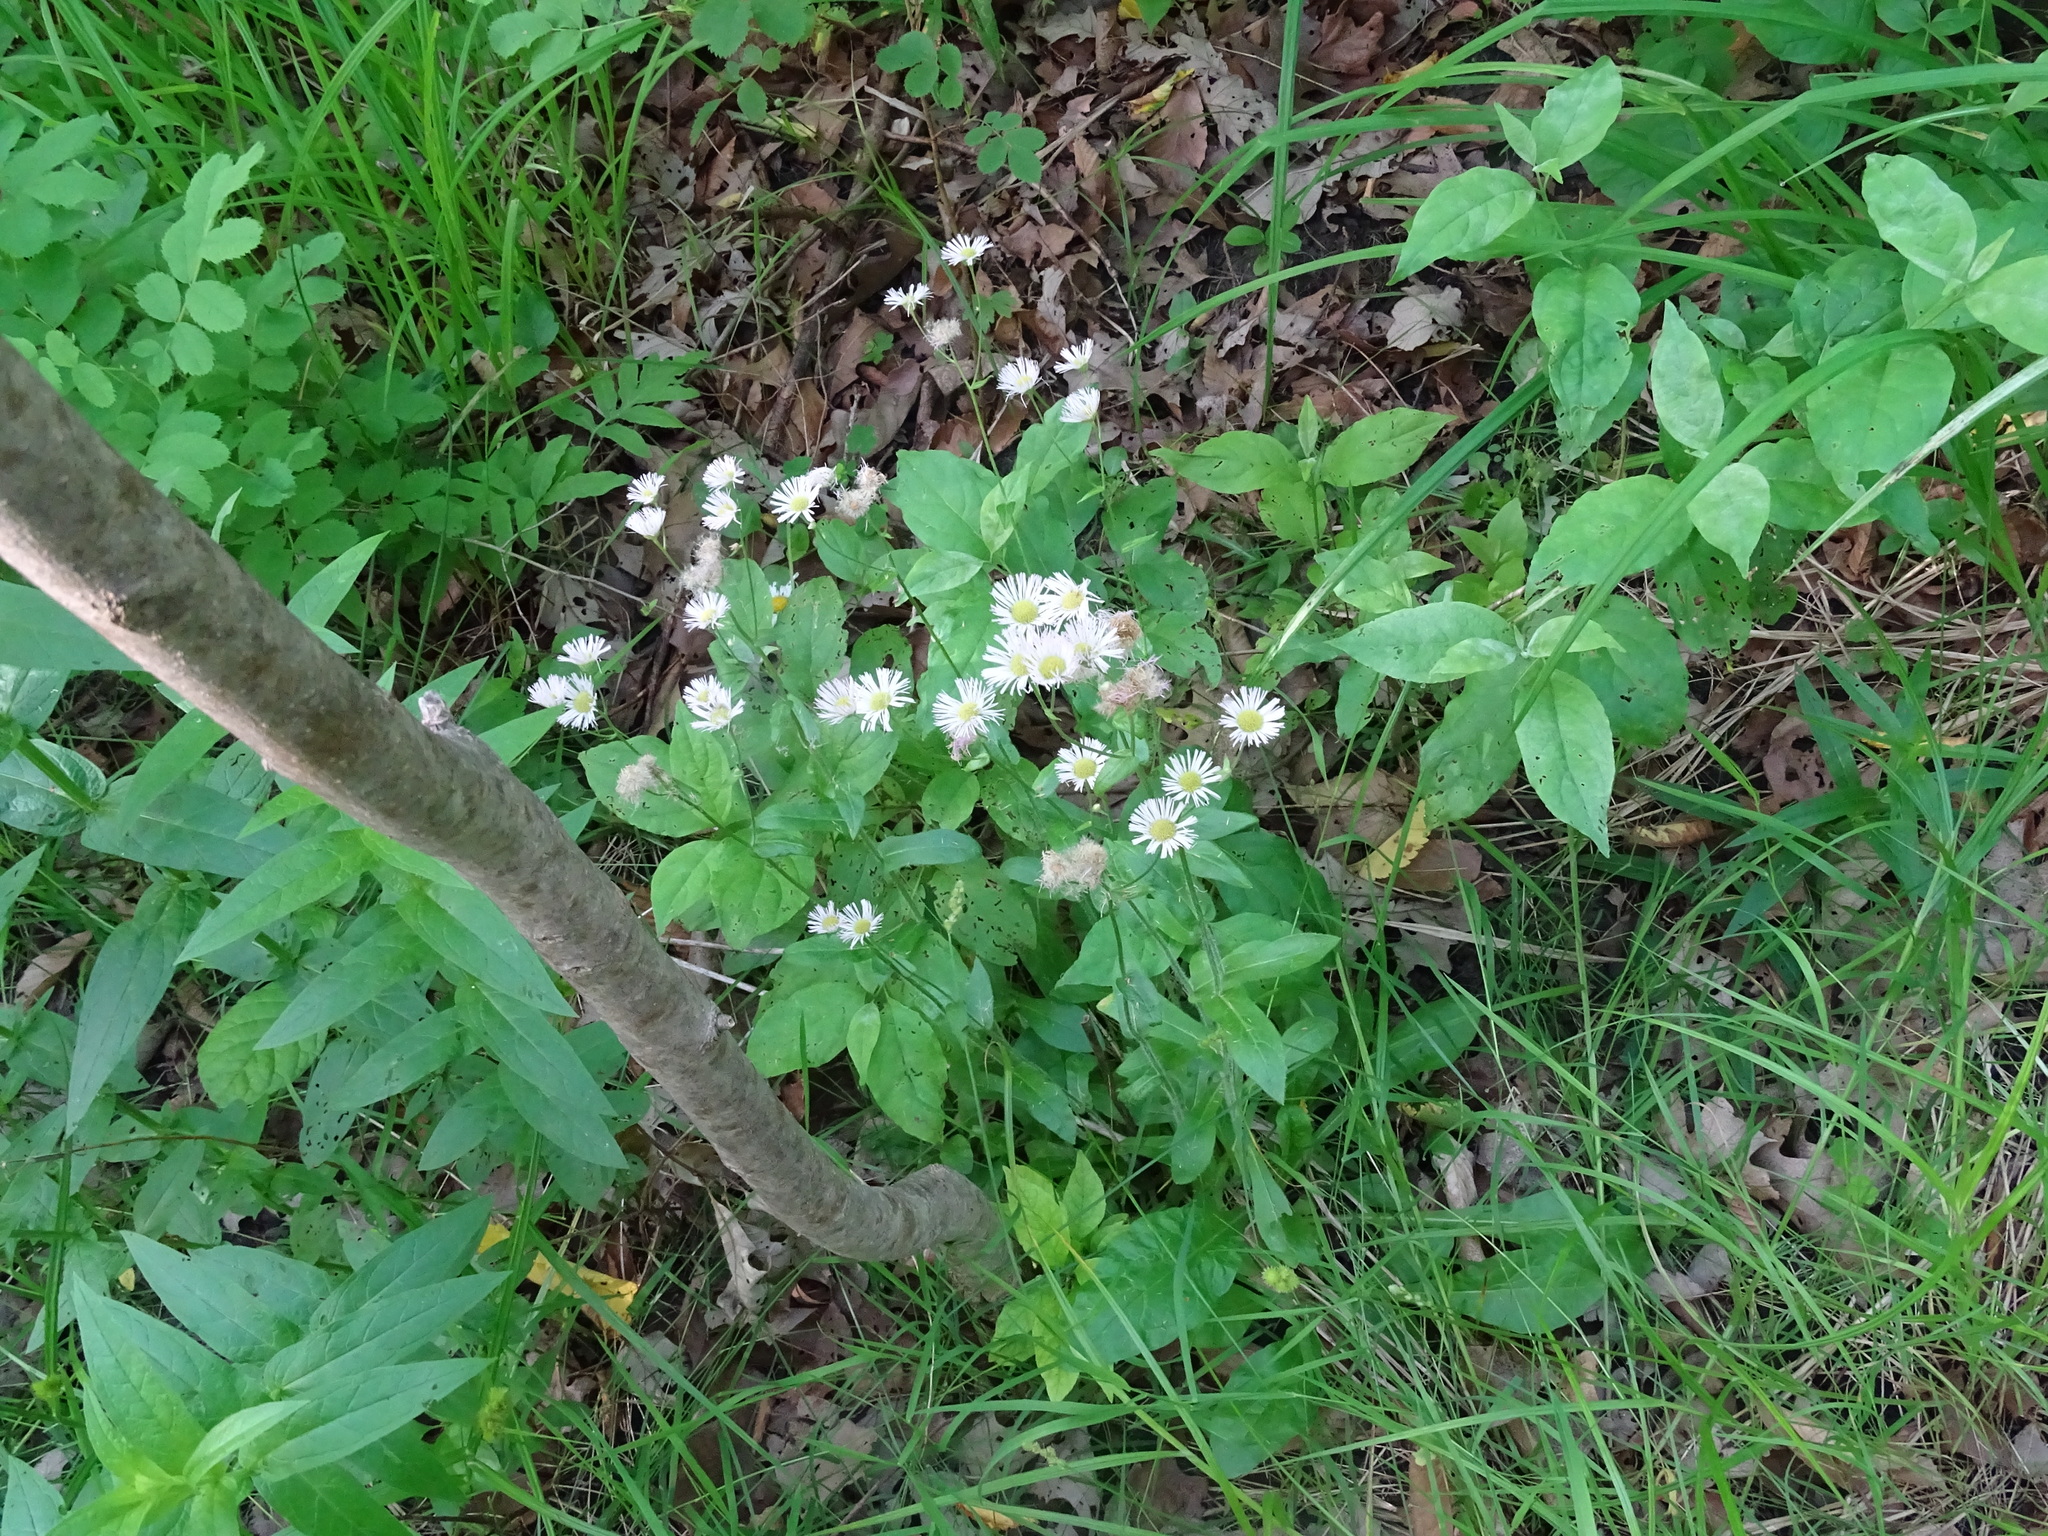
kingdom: Plantae
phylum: Tracheophyta
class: Magnoliopsida
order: Asterales
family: Asteraceae
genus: Erigeron
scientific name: Erigeron philadelphicus
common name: Robin's-plantain
